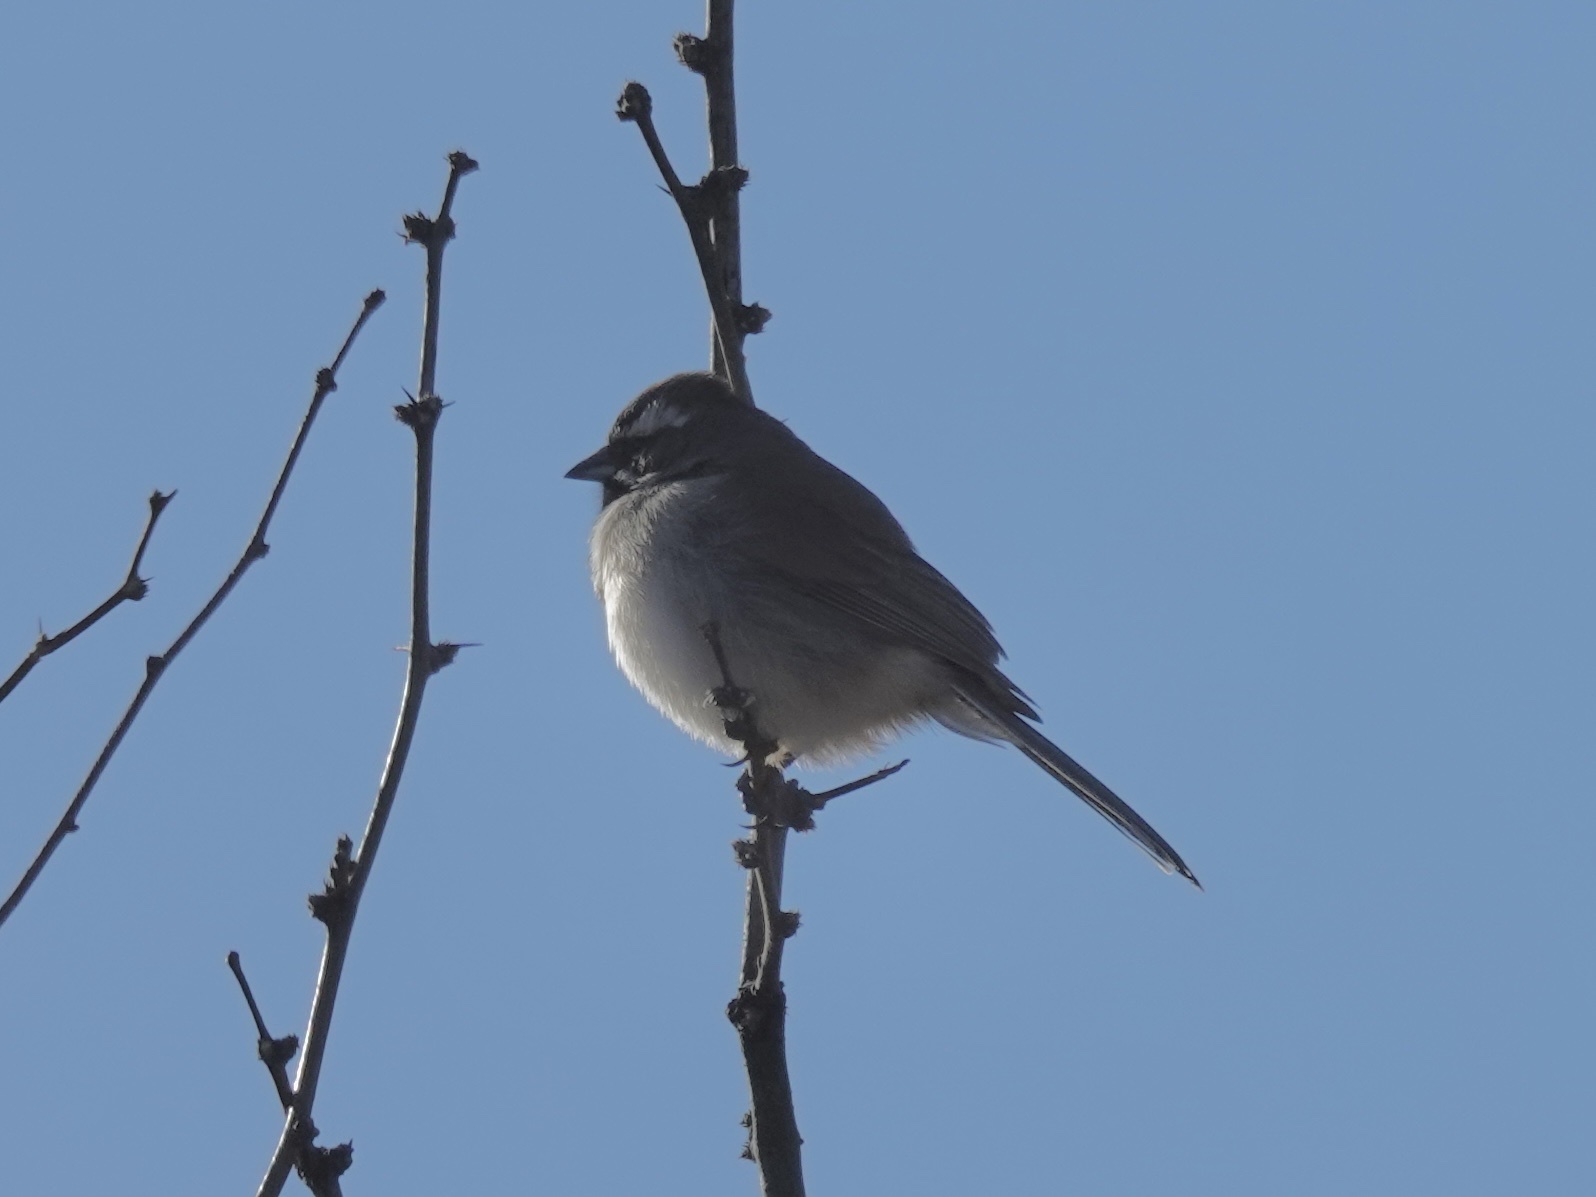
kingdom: Animalia
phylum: Chordata
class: Aves
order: Passeriformes
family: Passerellidae
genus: Amphispiza
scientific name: Amphispiza bilineata
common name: Black-throated sparrow
